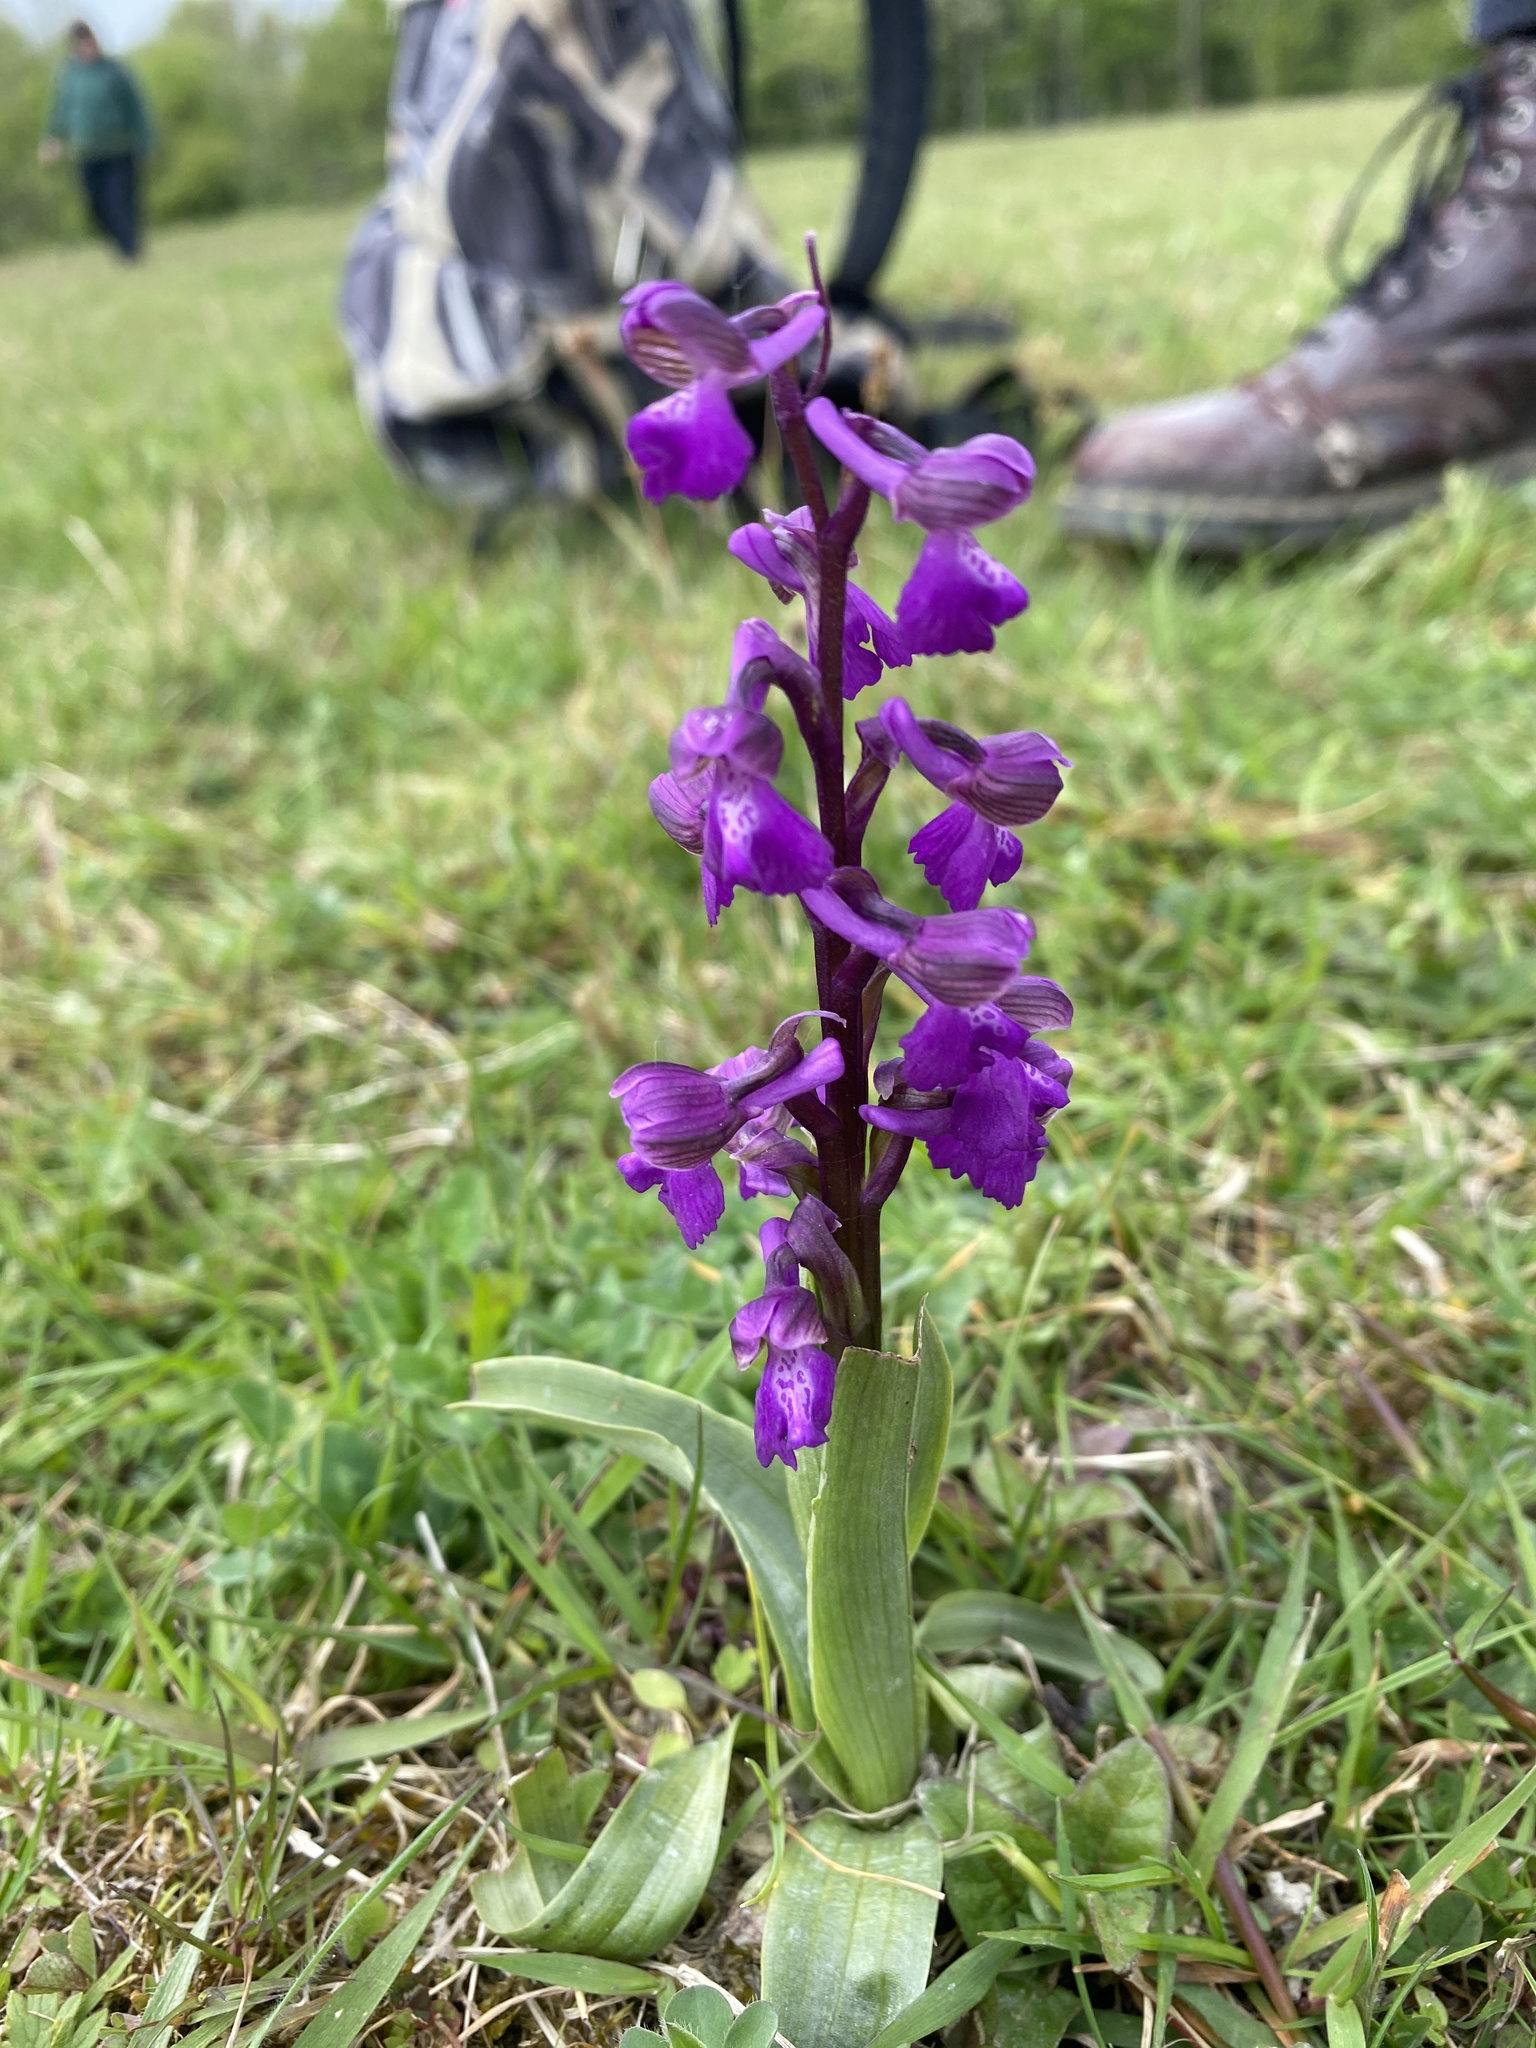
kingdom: Plantae
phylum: Tracheophyta
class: Liliopsida
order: Asparagales
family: Orchidaceae
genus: Anacamptis
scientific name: Anacamptis morio
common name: Green-winged orchid
